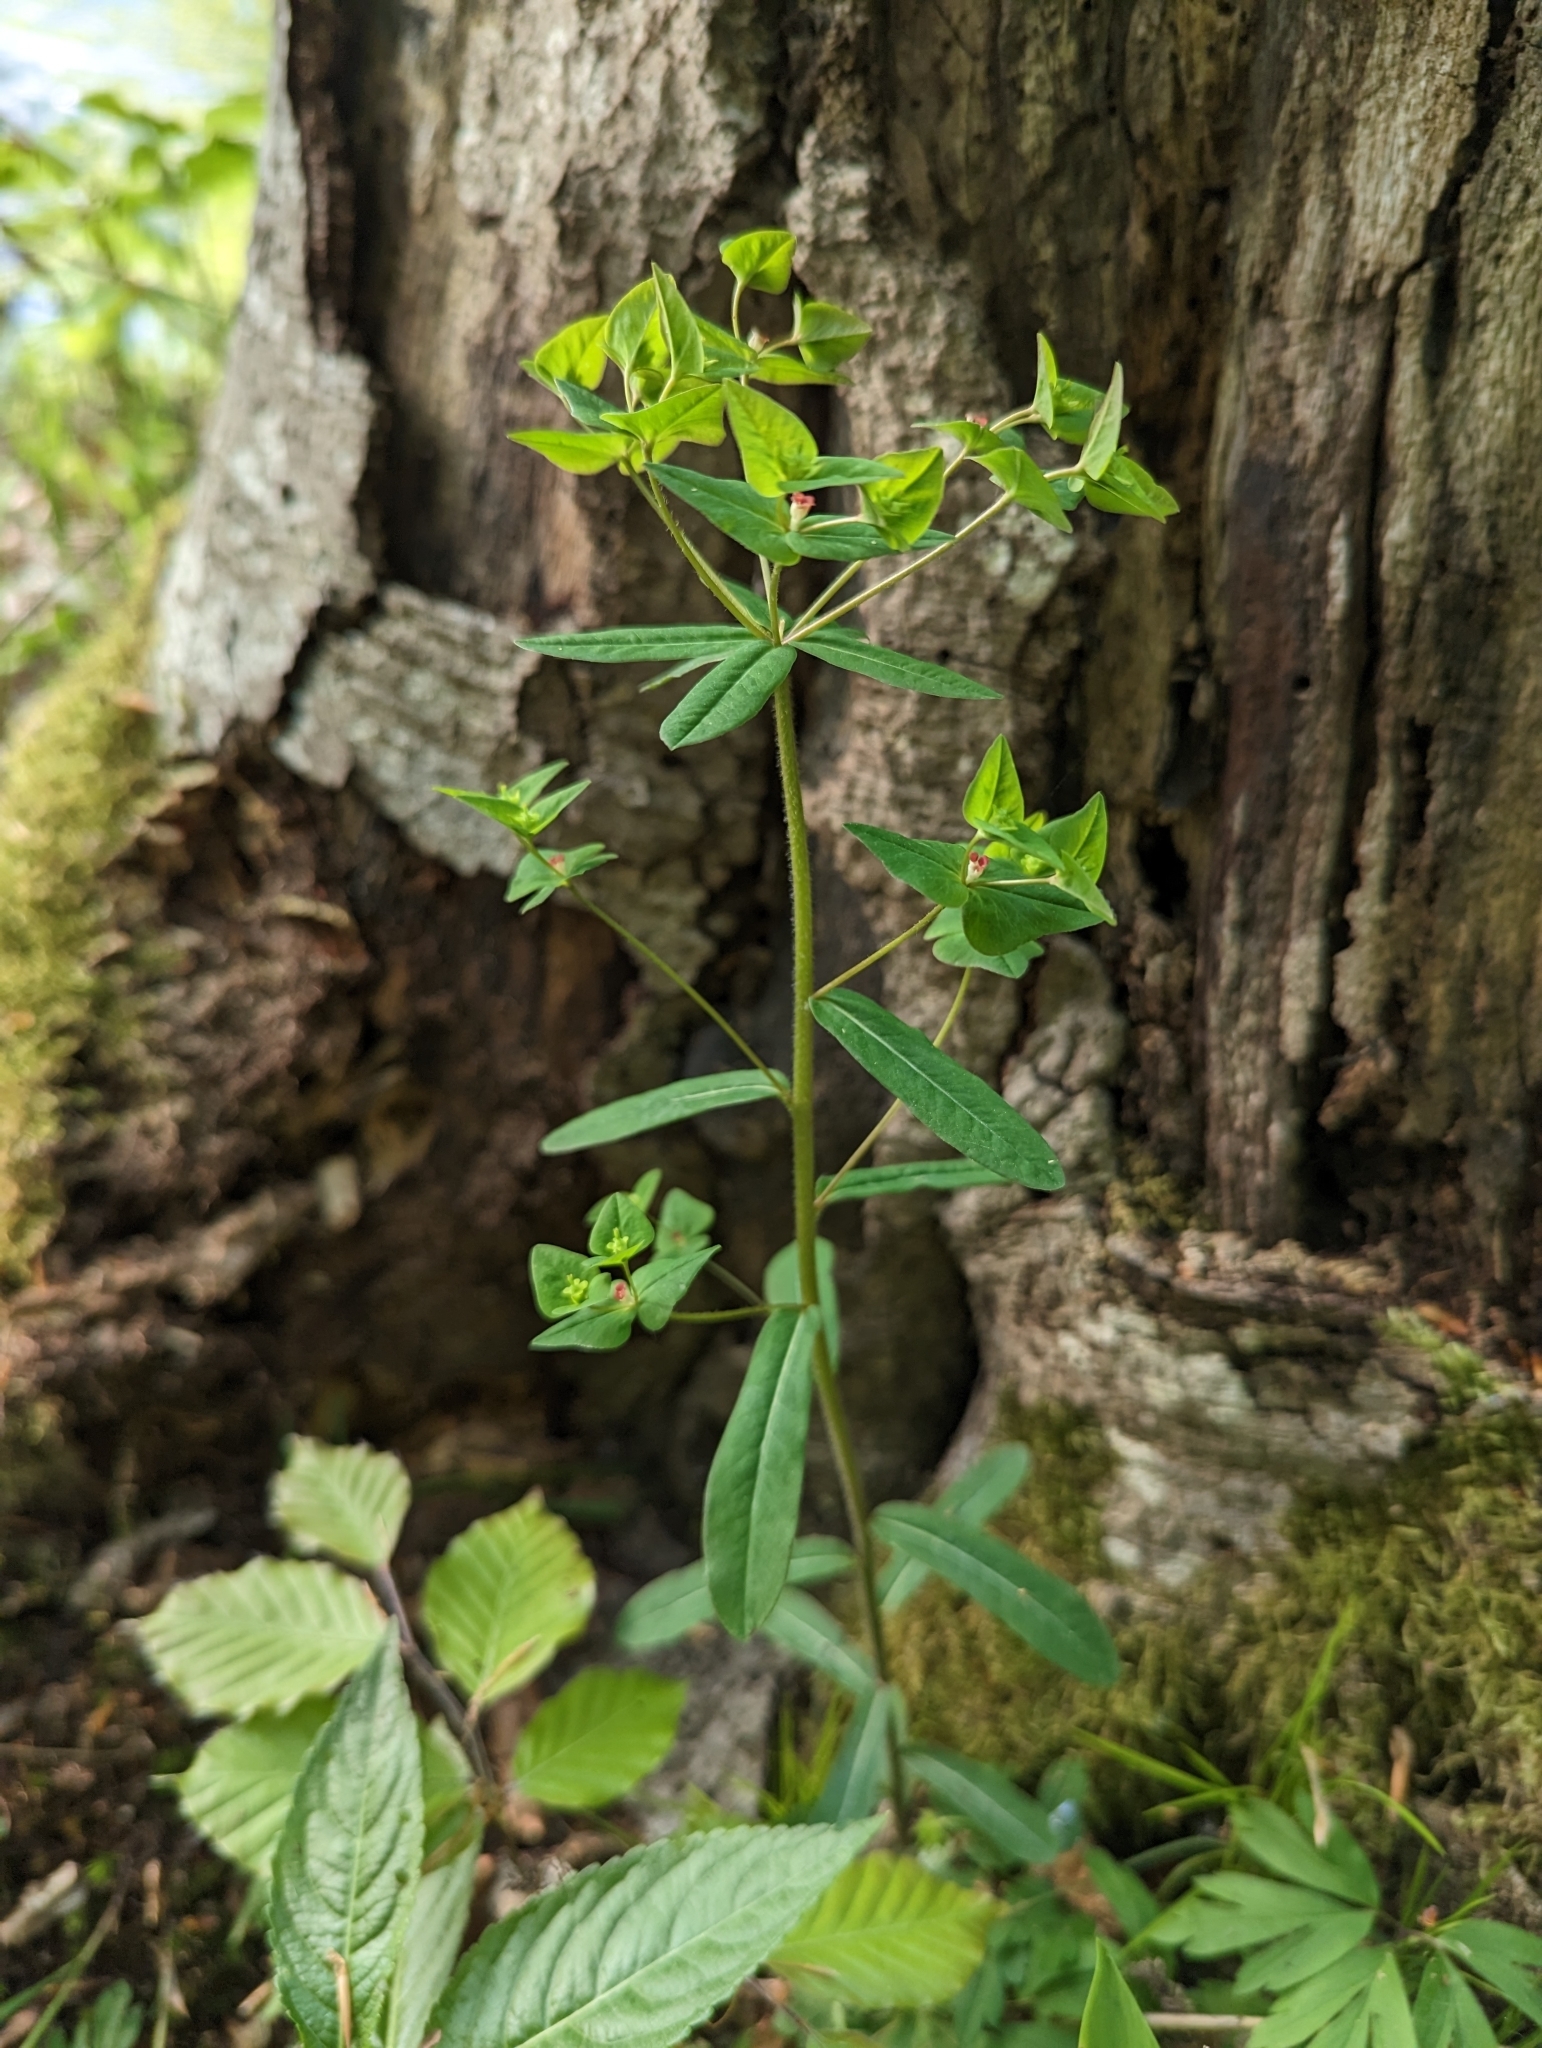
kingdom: Plantae
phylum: Tracheophyta
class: Magnoliopsida
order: Malpighiales
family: Euphorbiaceae
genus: Euphorbia
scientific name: Euphorbia dulcis
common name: Sweet spurge
